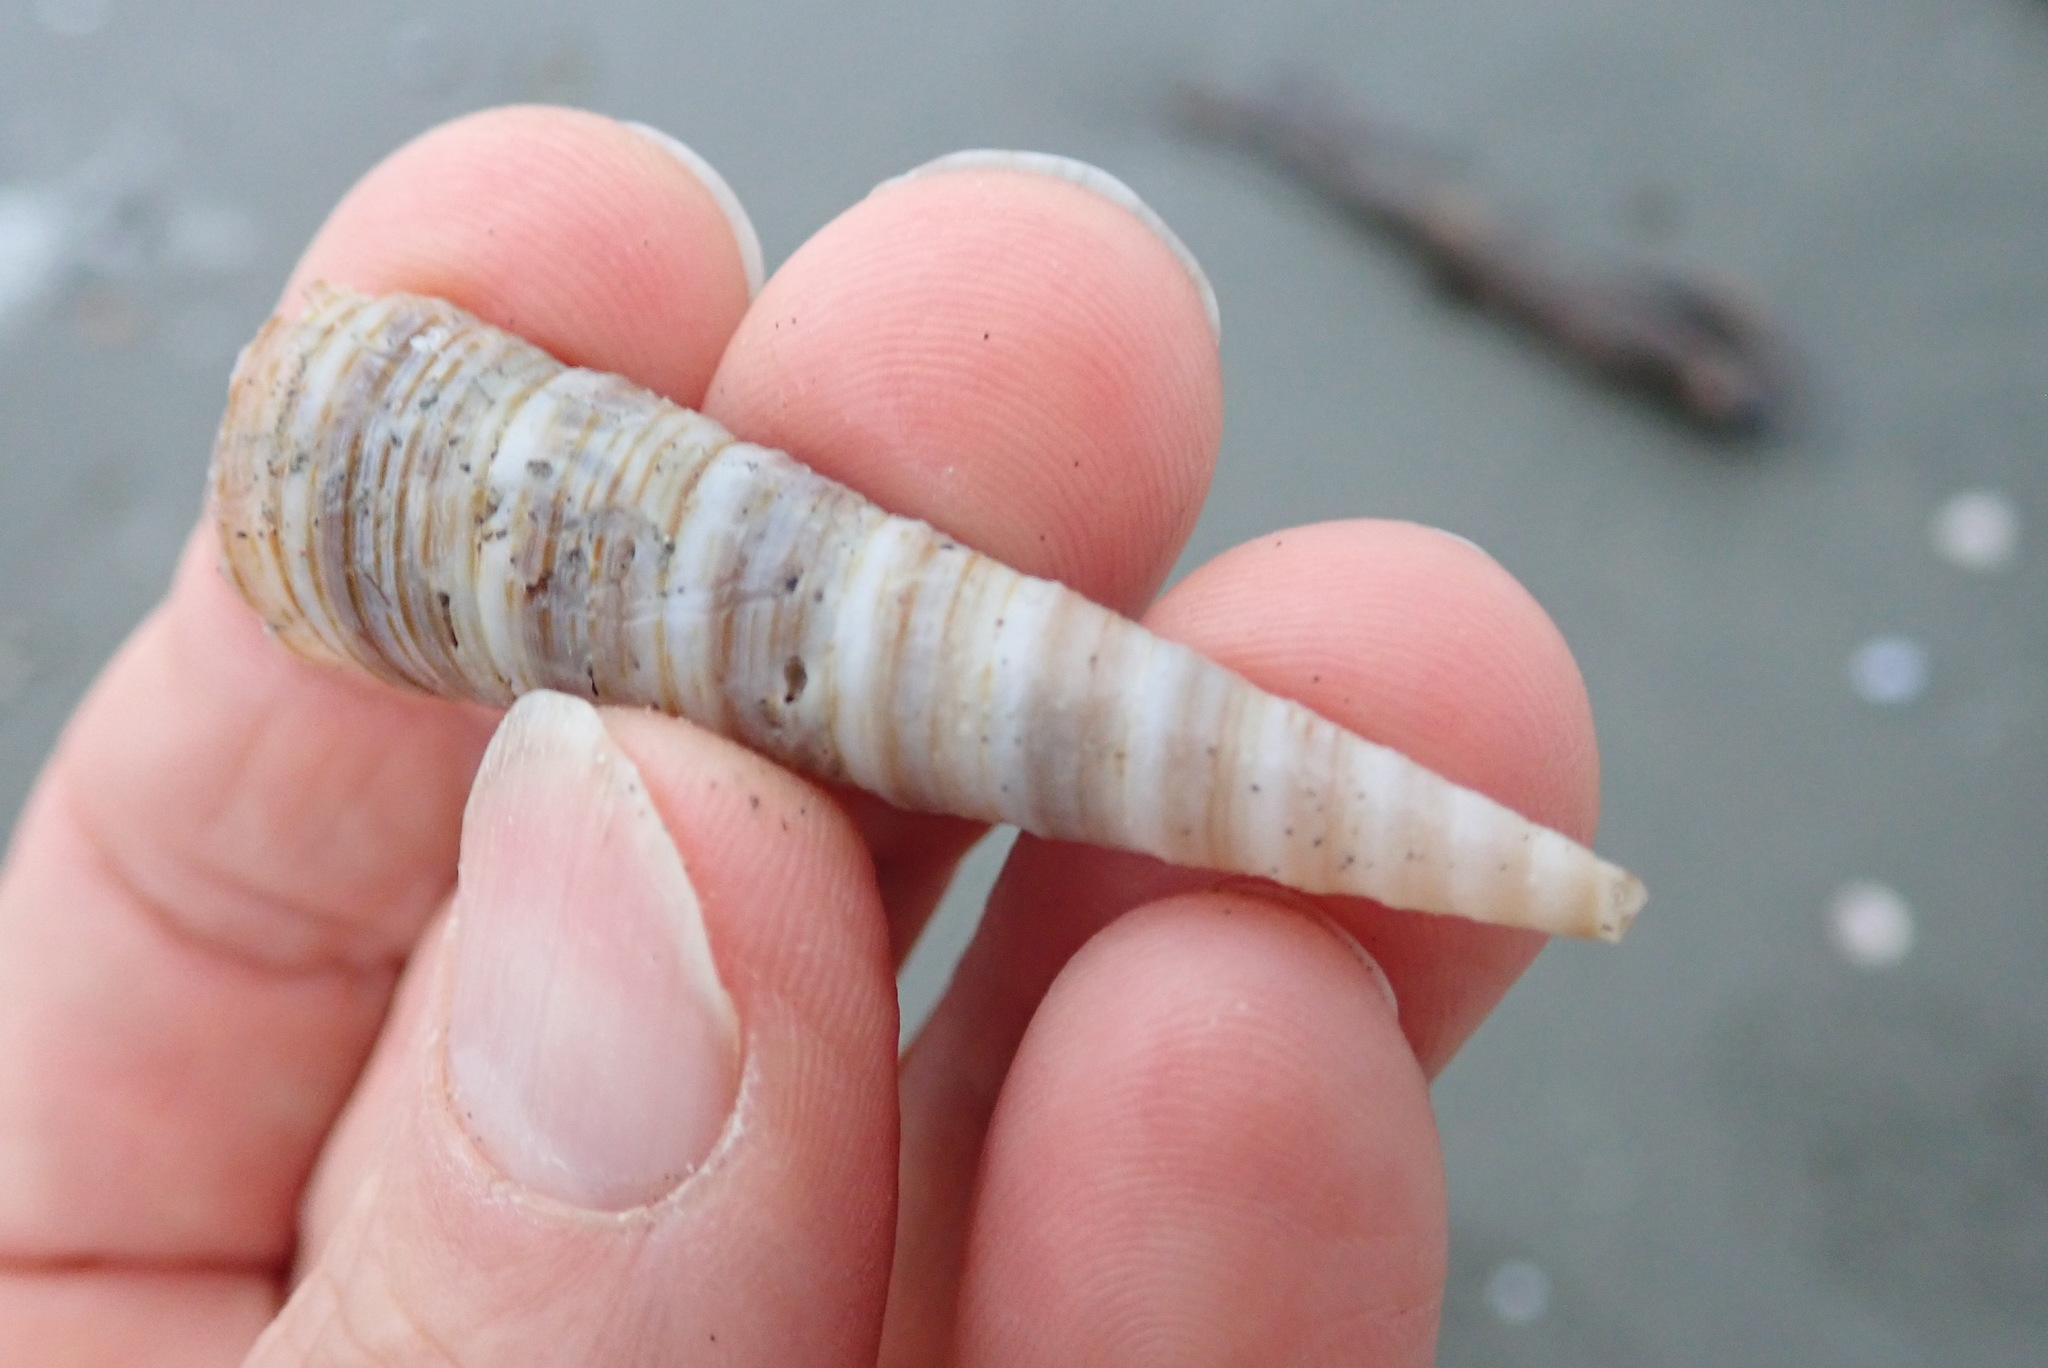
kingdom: Animalia
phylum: Mollusca
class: Gastropoda
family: Turritellidae
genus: Zeacolpus
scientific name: Zeacolpus vittatus
